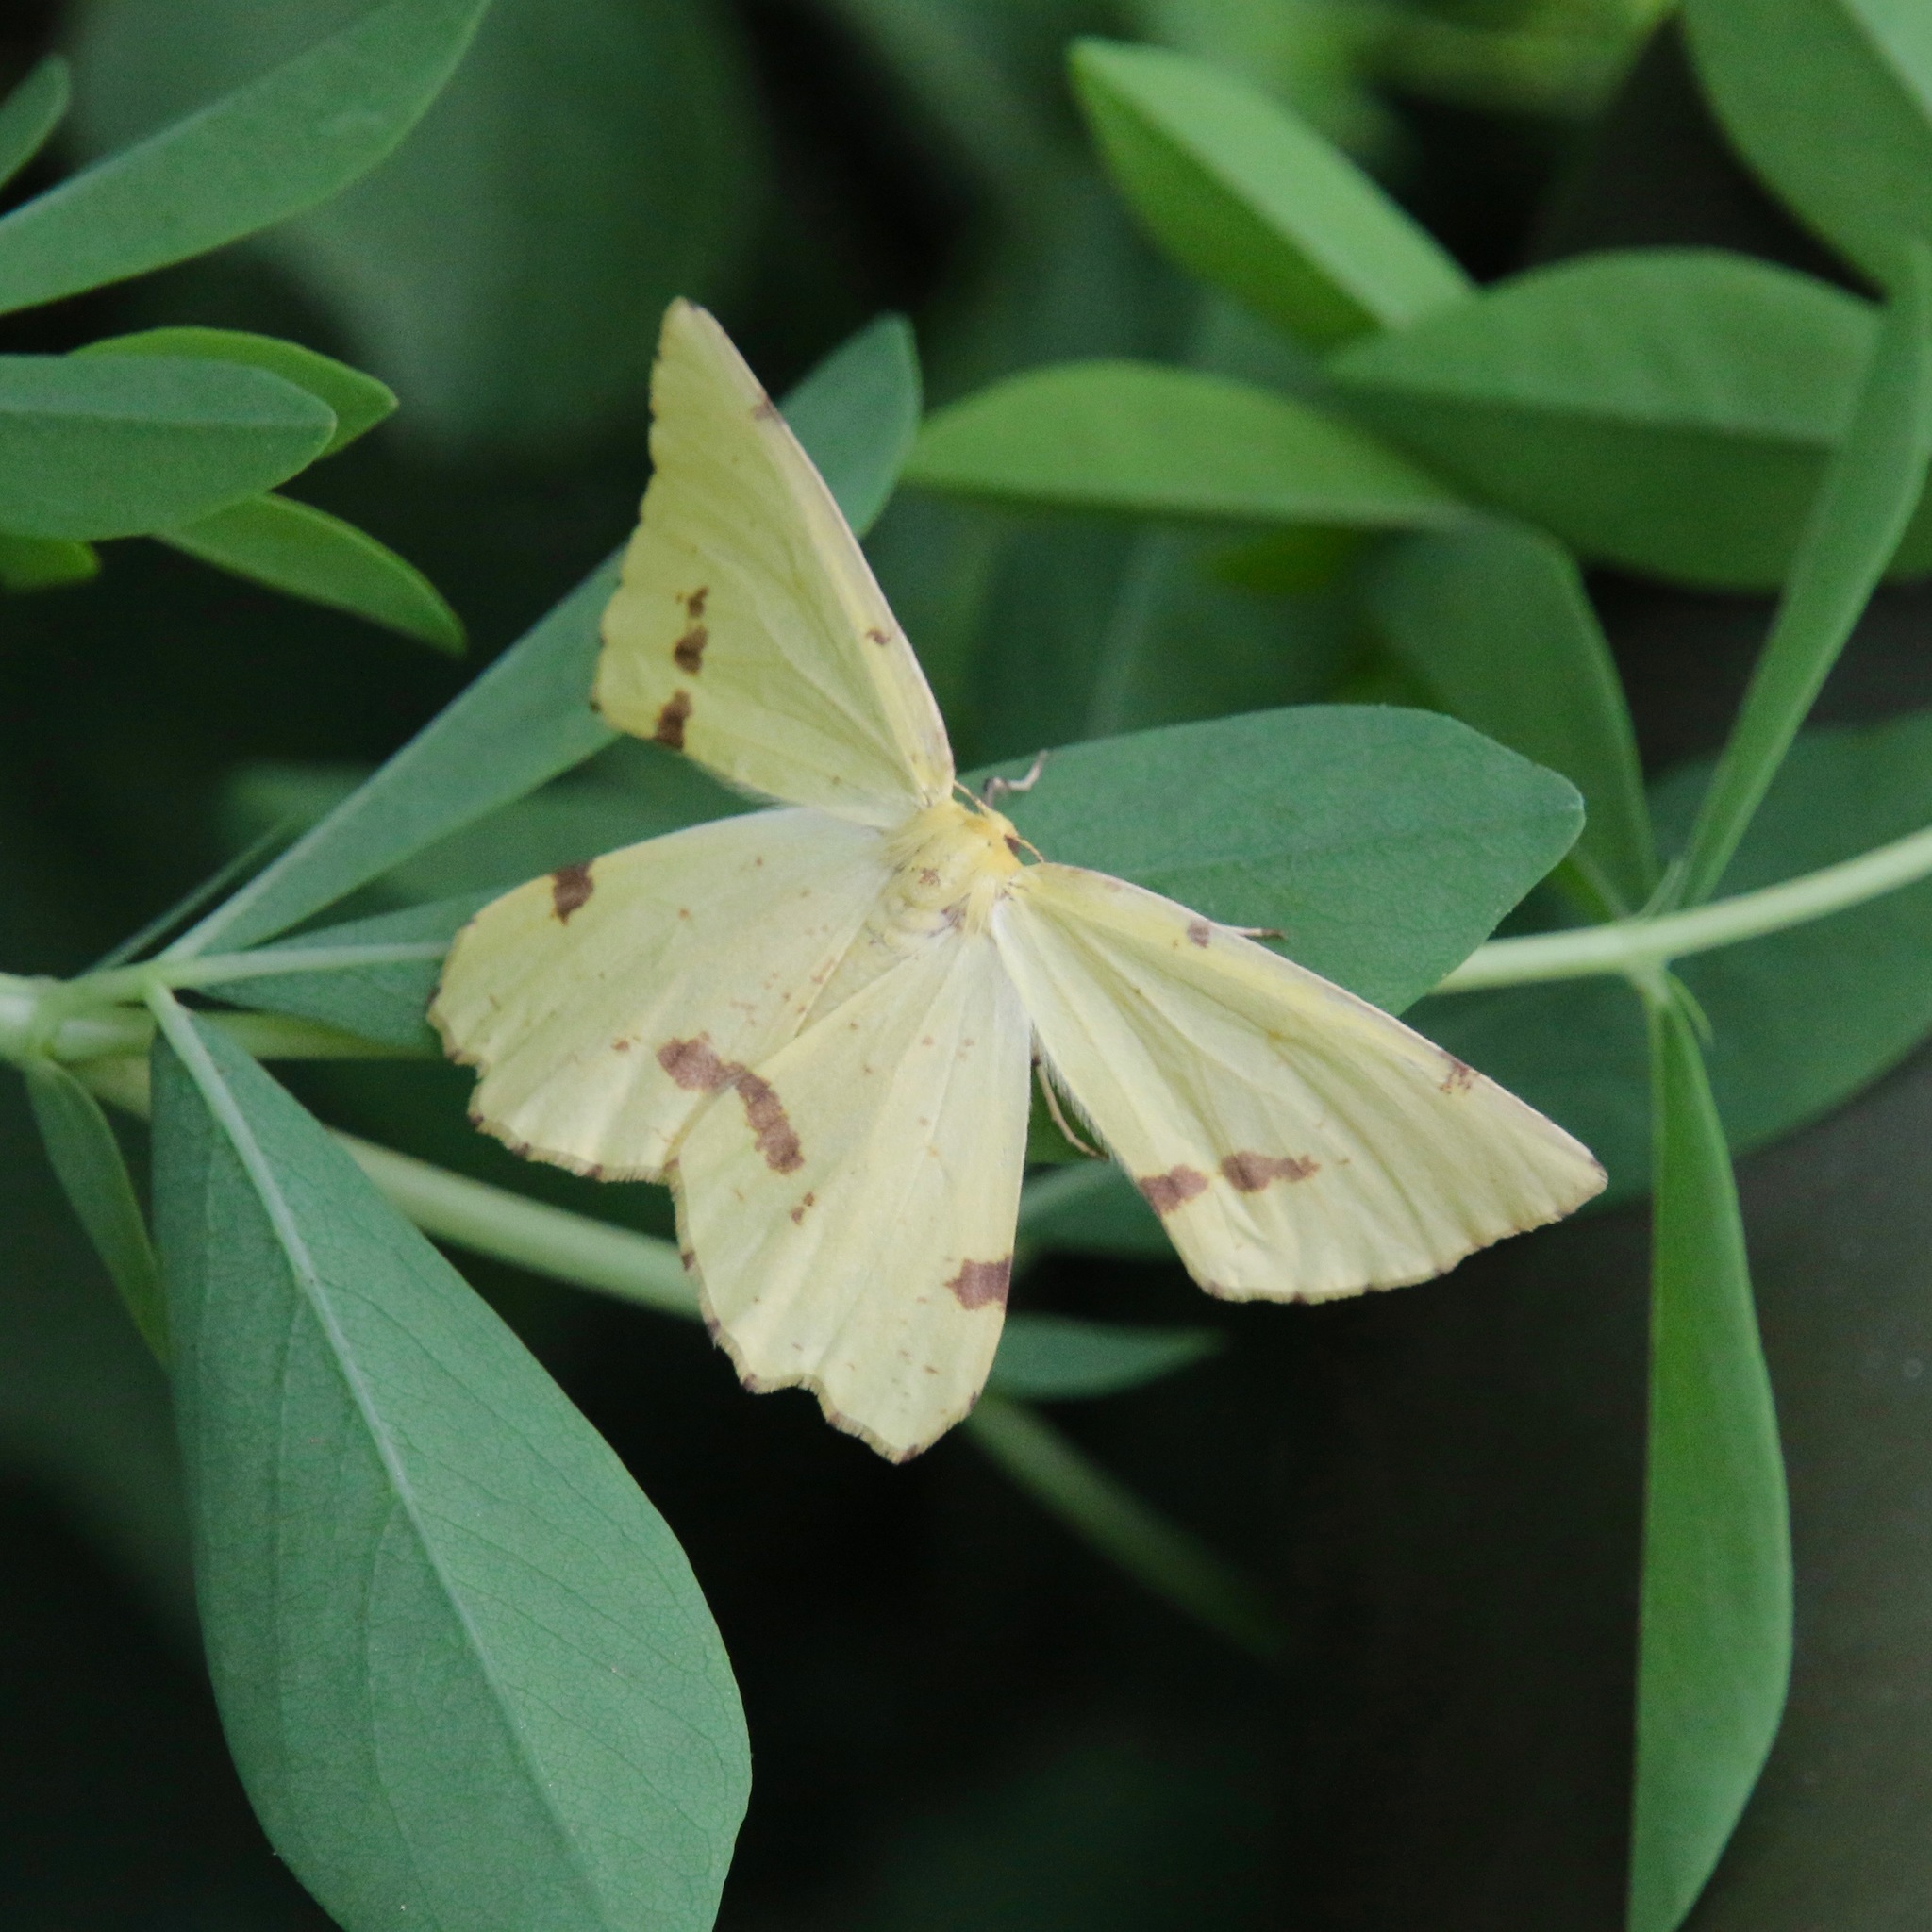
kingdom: Animalia
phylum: Arthropoda
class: Insecta
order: Lepidoptera
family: Geometridae
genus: Xanthotype
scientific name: Xanthotype
